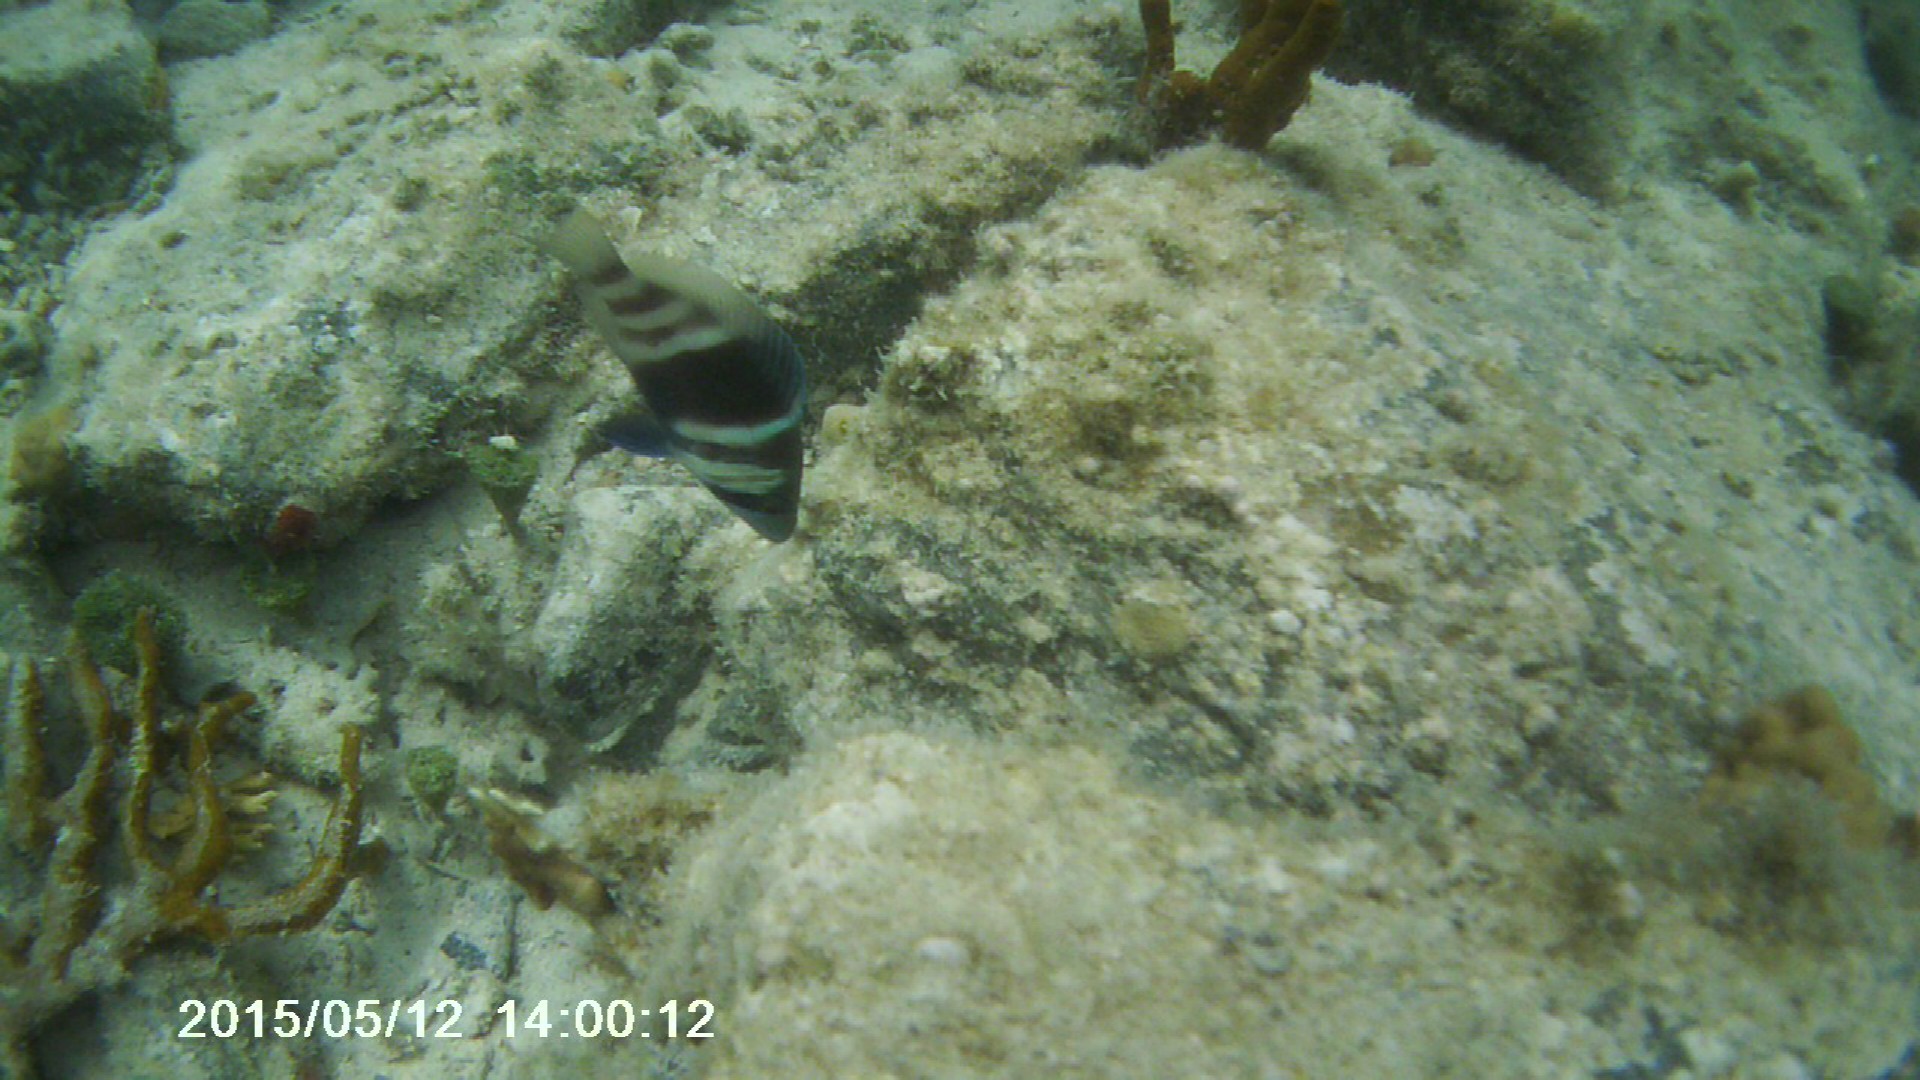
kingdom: Animalia
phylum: Chordata
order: Perciformes
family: Serranidae
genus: Hypoplectrus
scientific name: Hypoplectrus puella
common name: Barred hamlet
